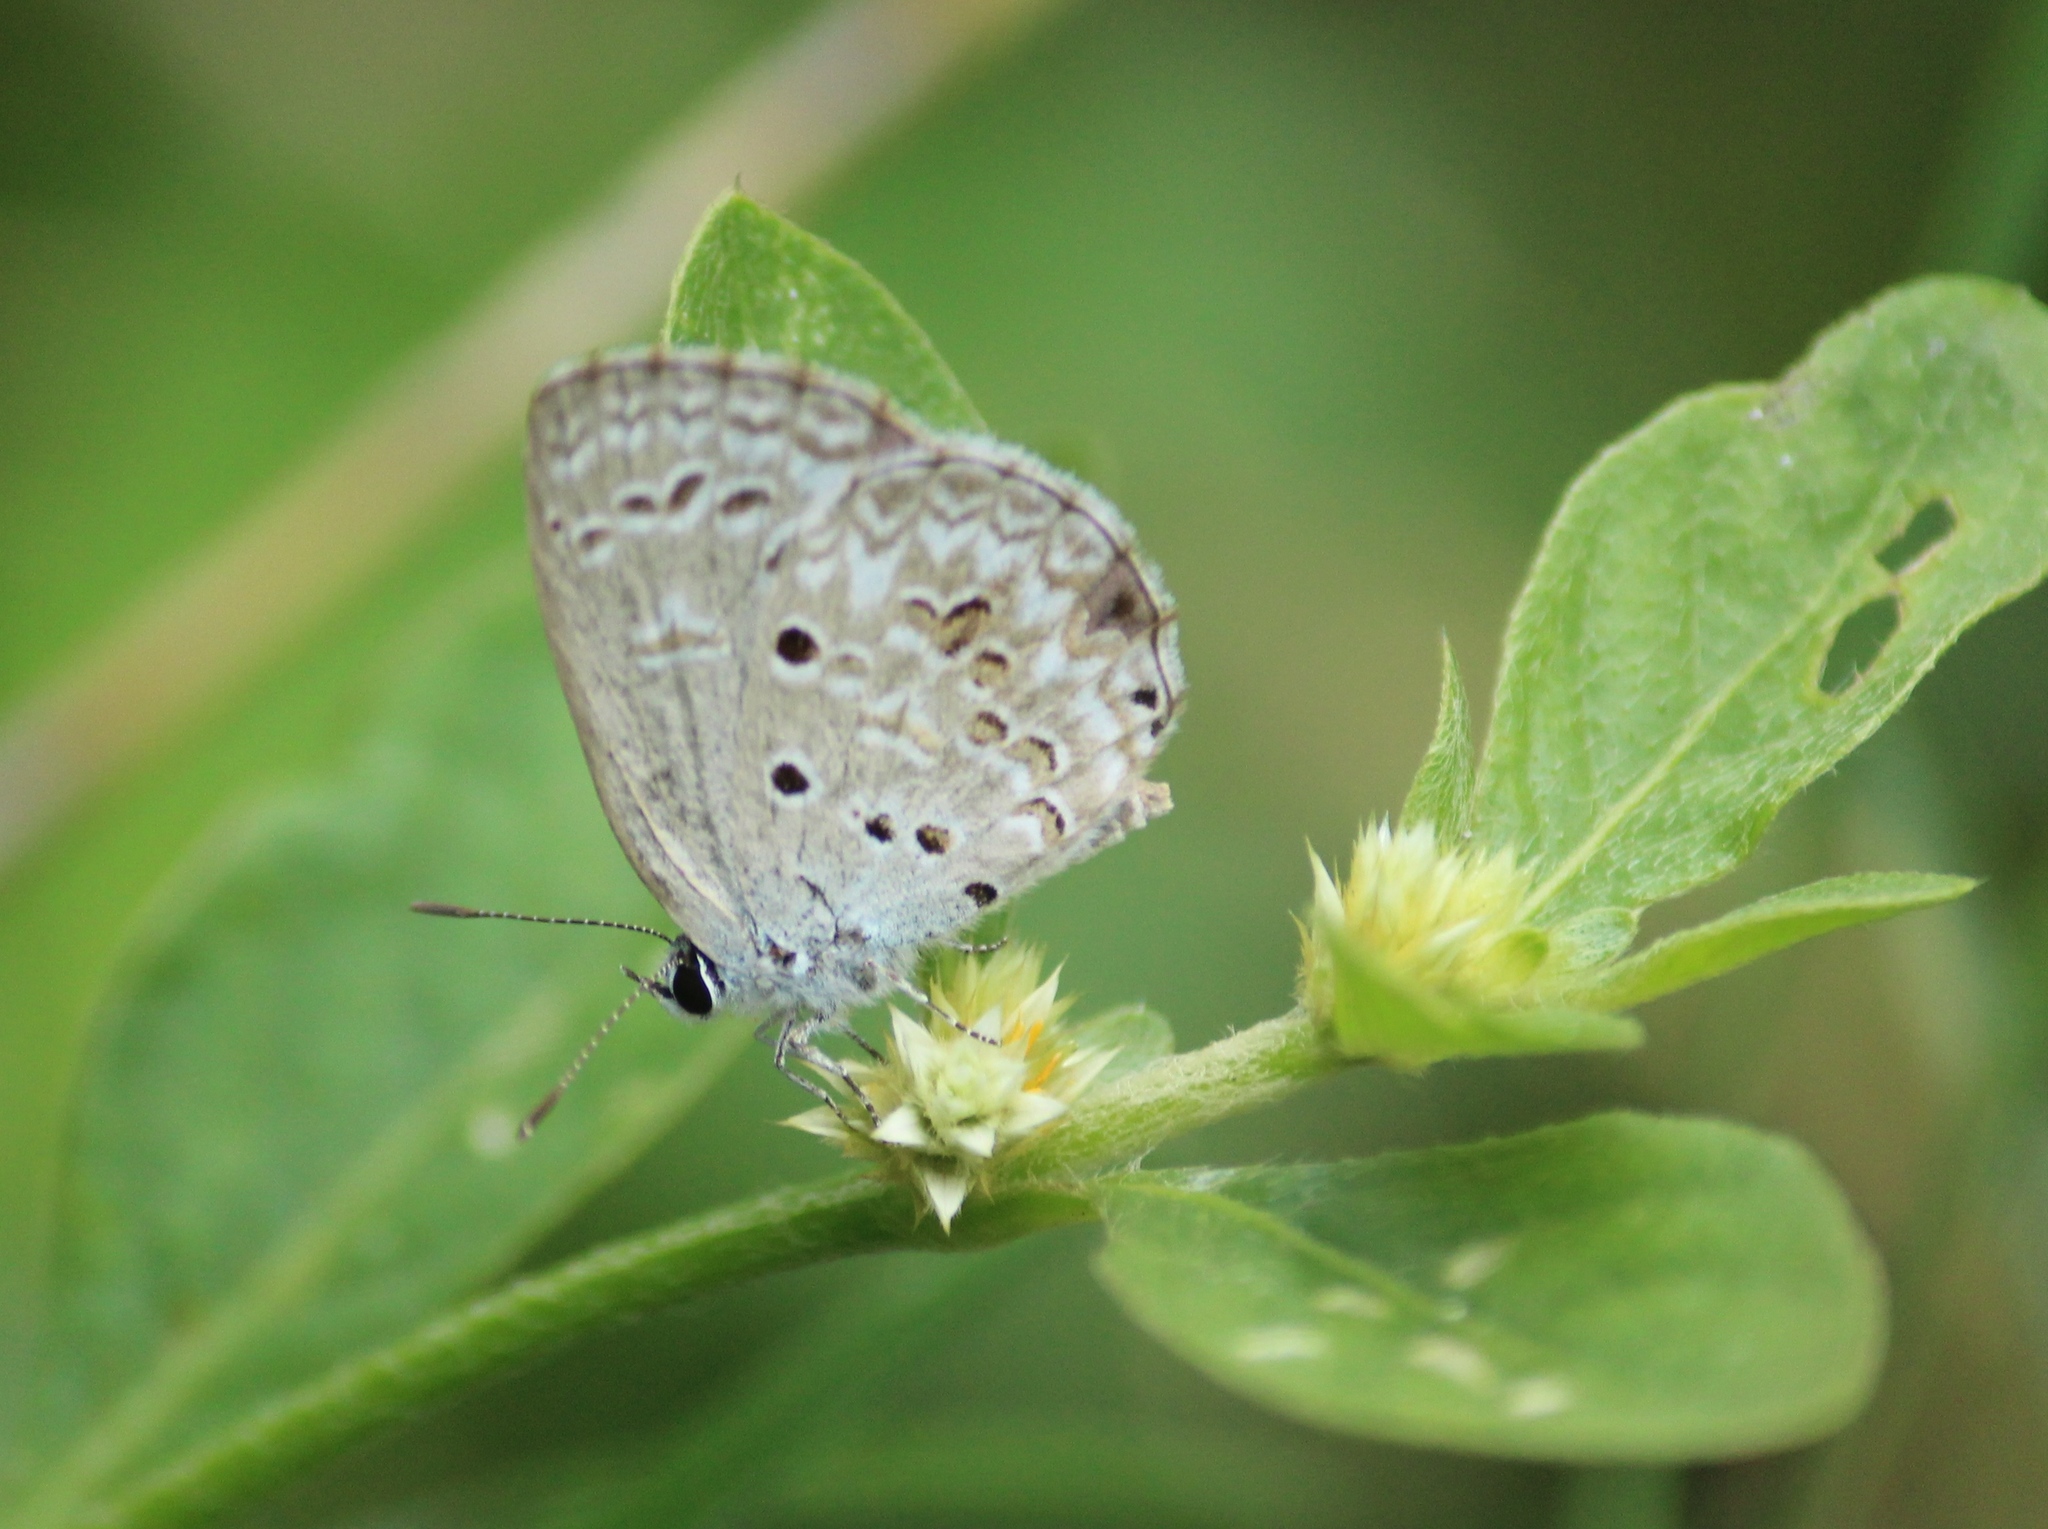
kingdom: Animalia
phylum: Arthropoda
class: Insecta
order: Lepidoptera
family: Lycaenidae
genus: Chilades
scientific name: Chilades laius
